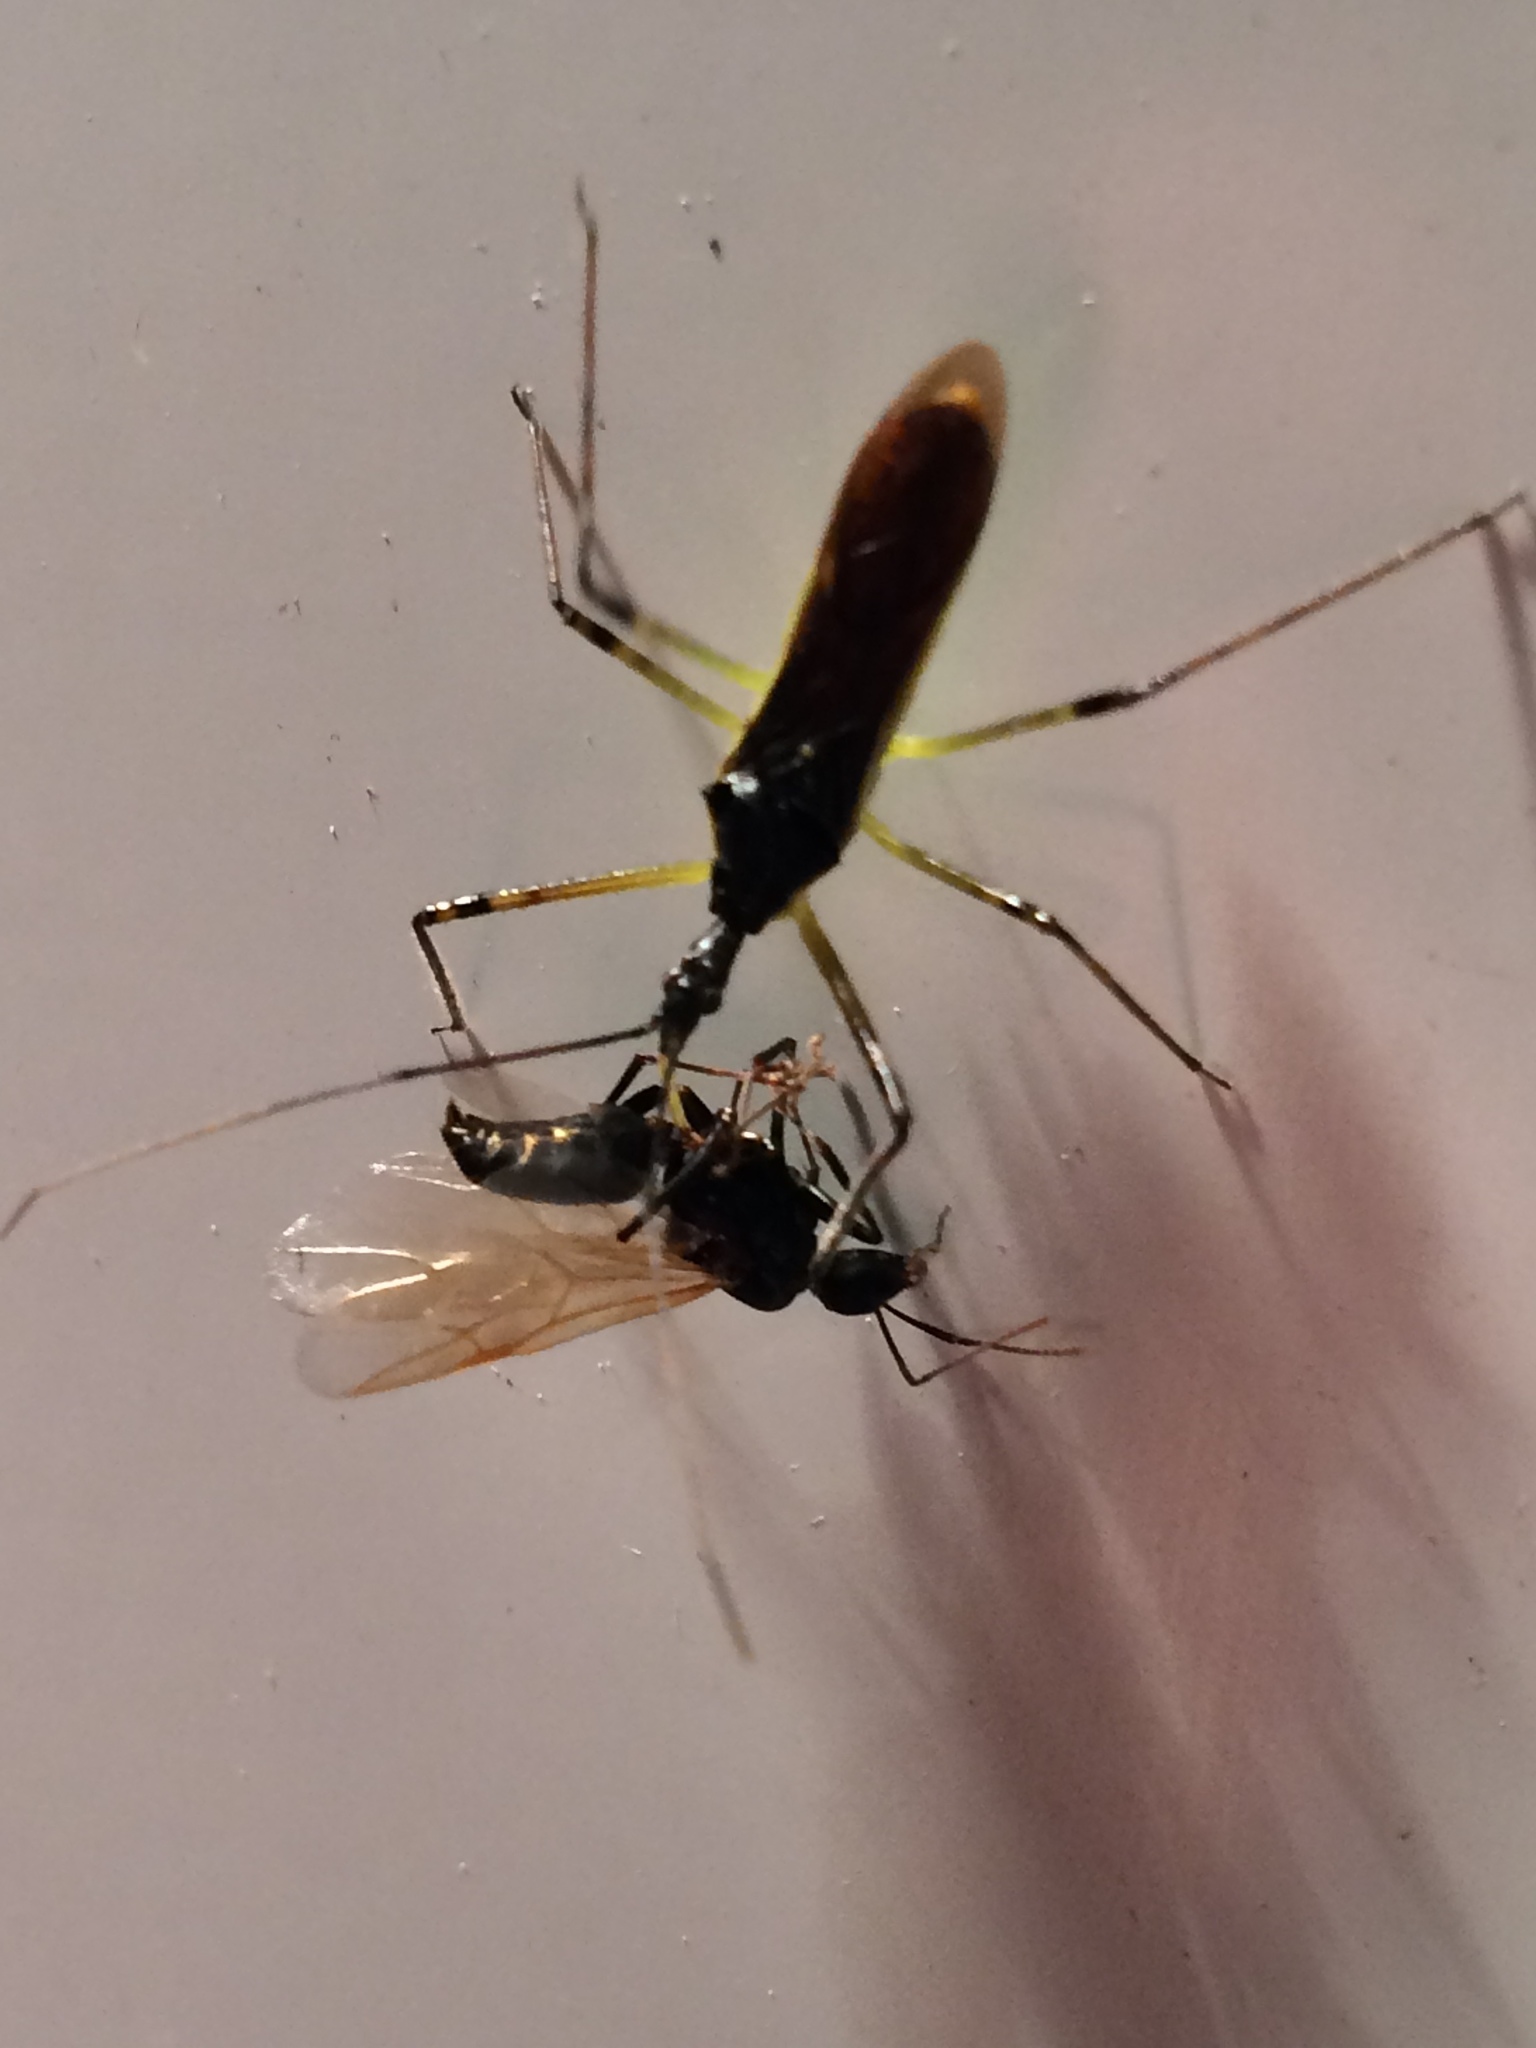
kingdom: Animalia
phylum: Arthropoda
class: Insecta
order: Hemiptera
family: Reduviidae
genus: Zelus
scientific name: Zelus luridus
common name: Pale green assassin bug
